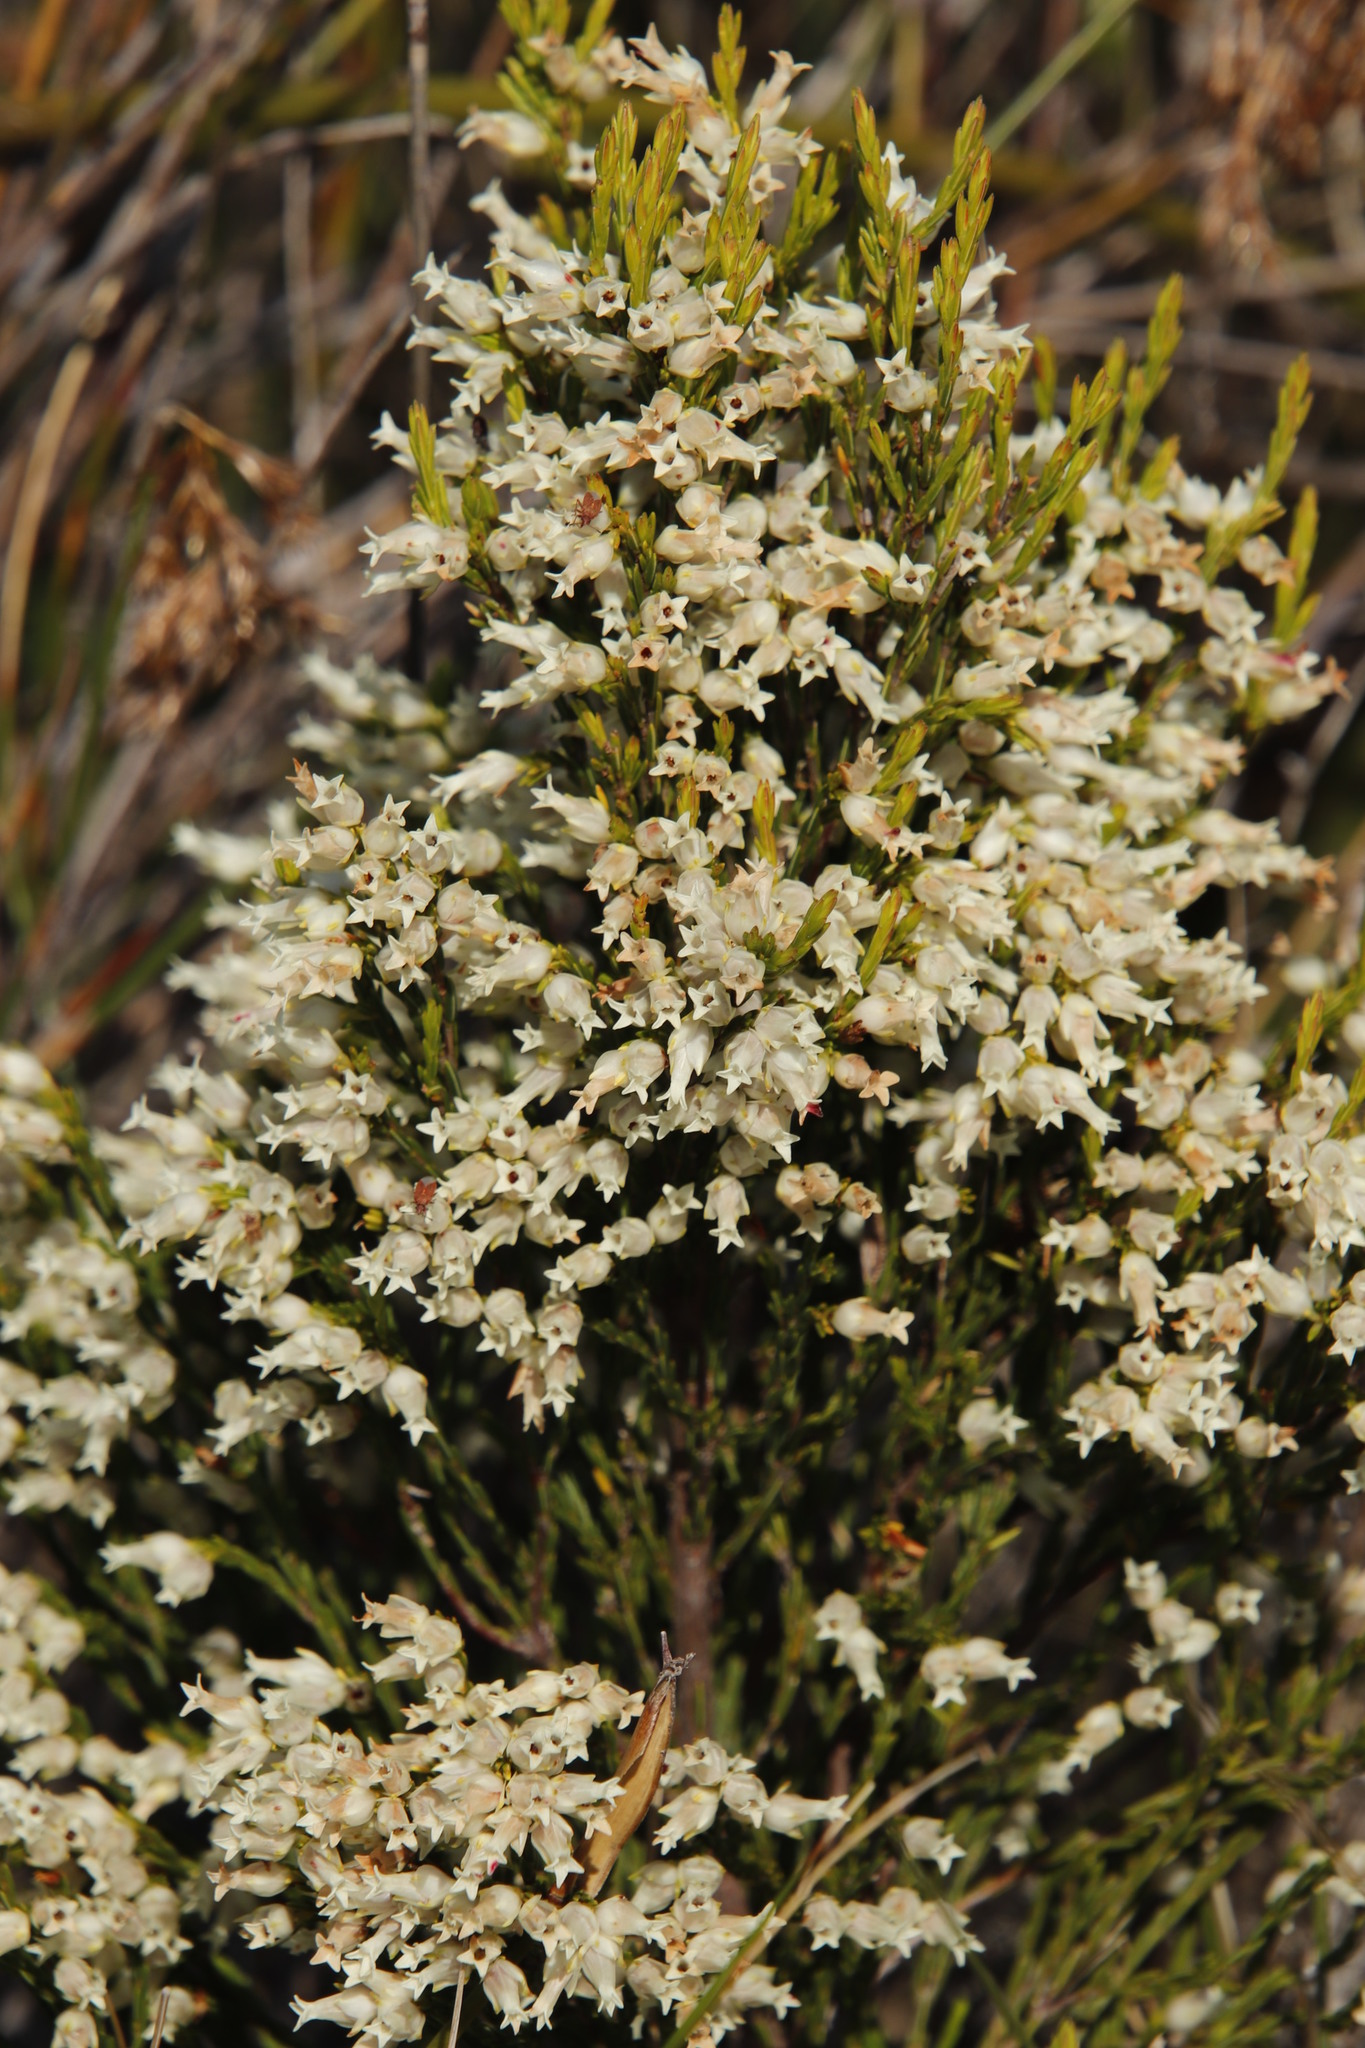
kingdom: Plantae
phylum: Tracheophyta
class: Magnoliopsida
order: Ericales
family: Ericaceae
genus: Erica
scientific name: Erica lutea
